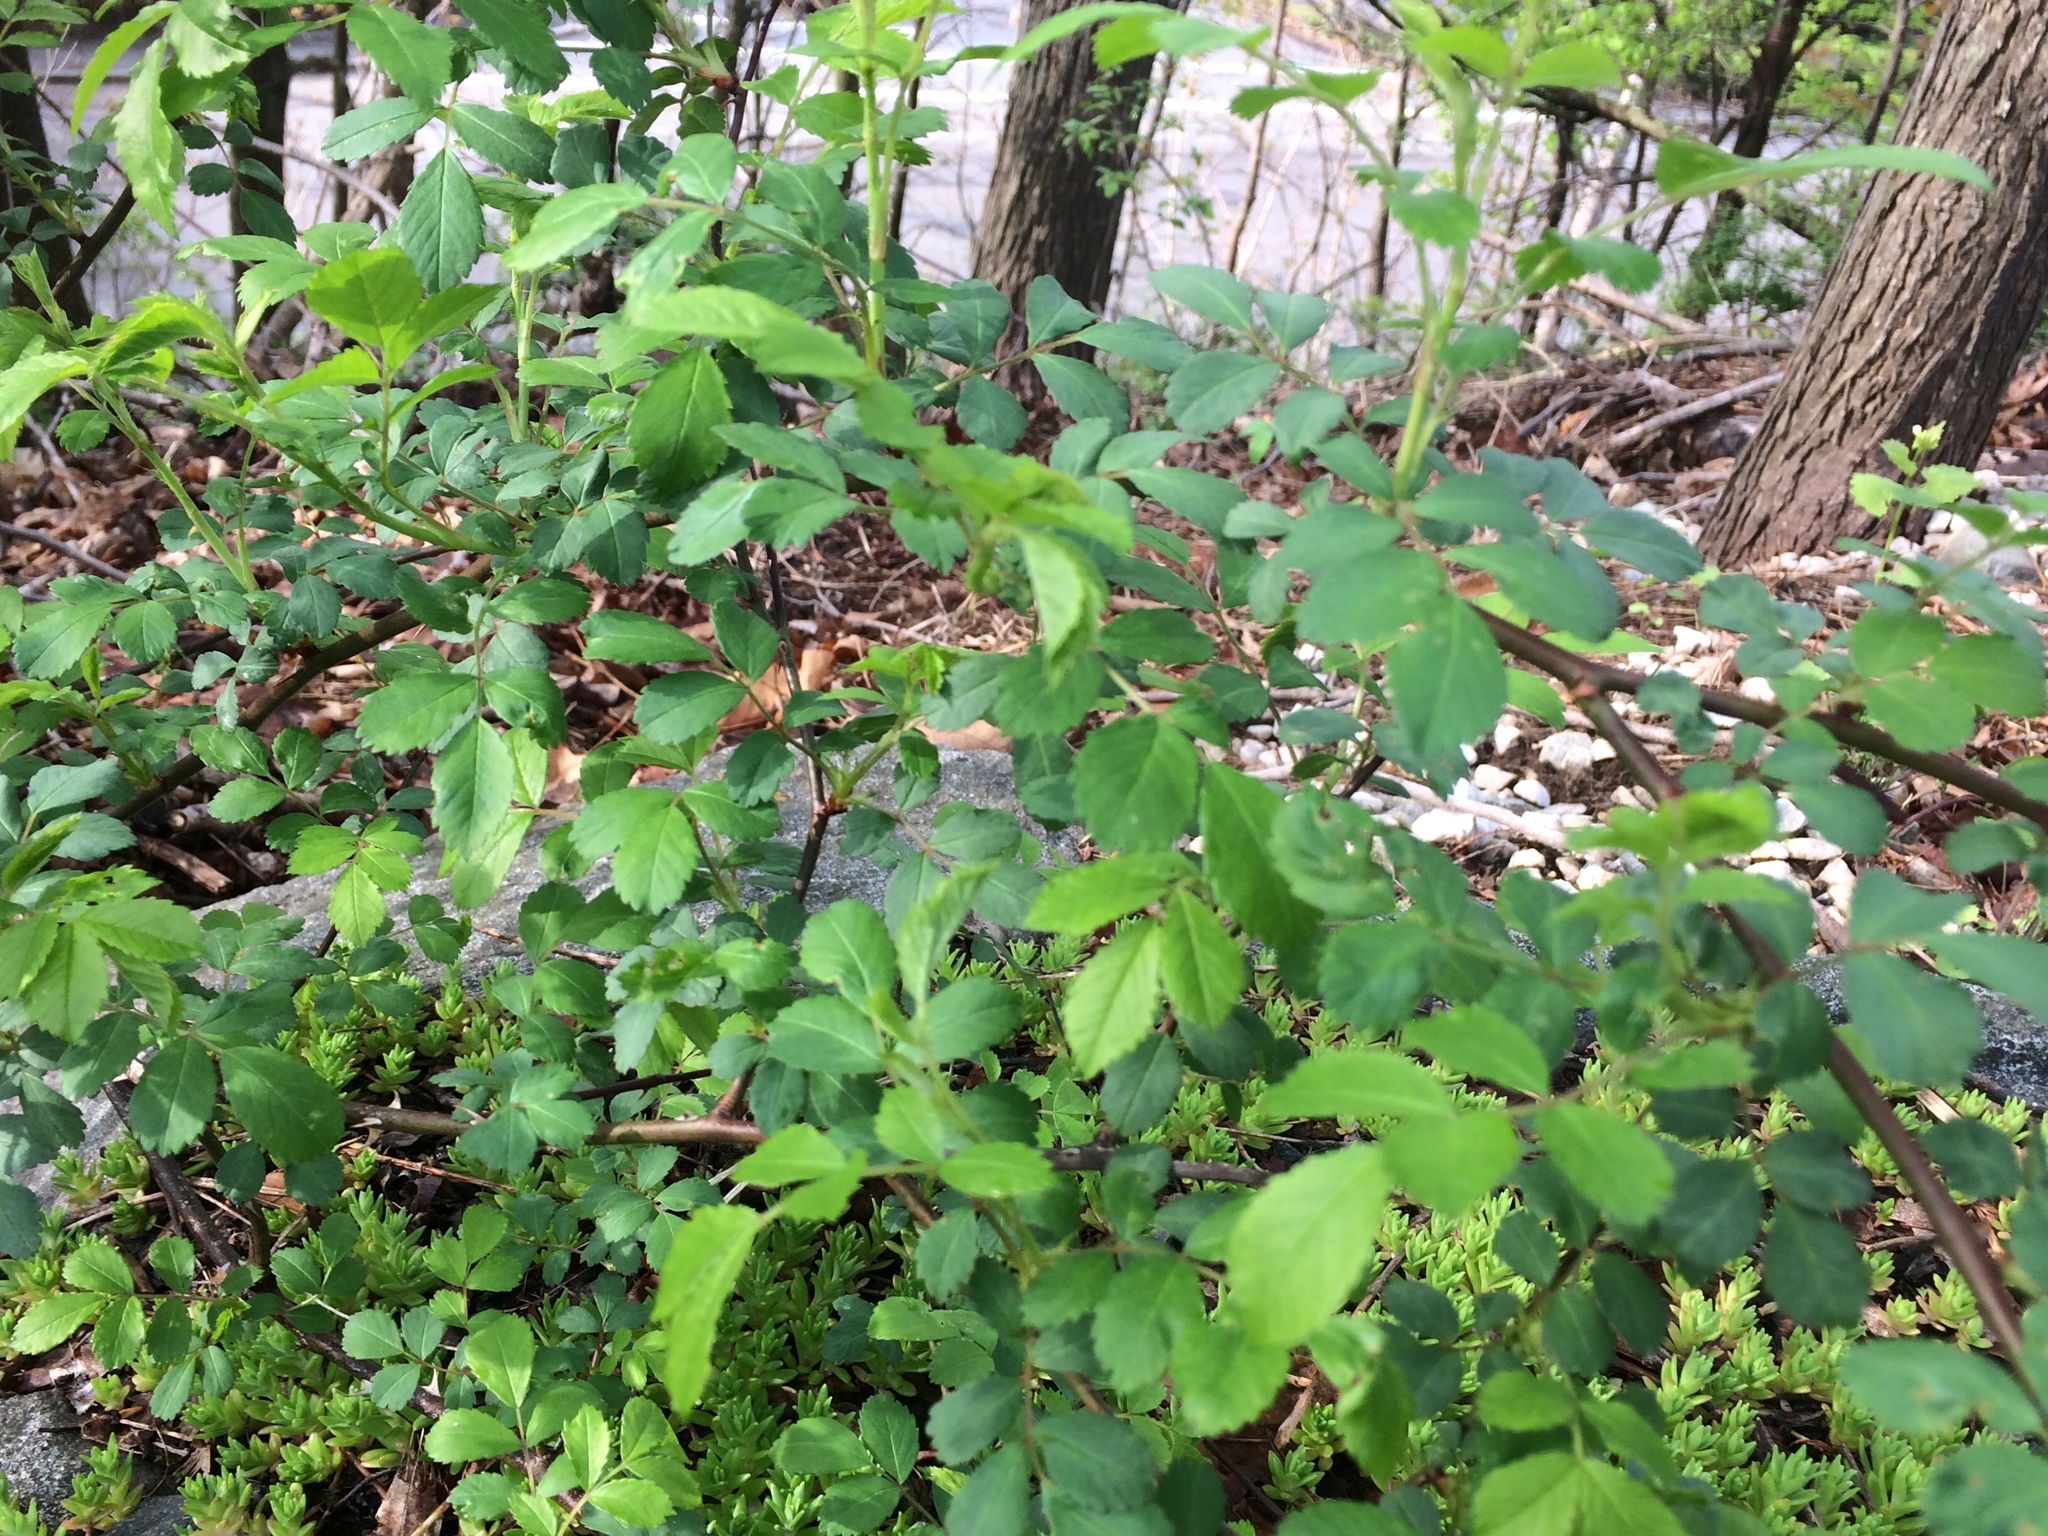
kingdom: Plantae
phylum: Tracheophyta
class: Magnoliopsida
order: Rosales
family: Rosaceae
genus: Rosa
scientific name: Rosa multiflora
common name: Multiflora rose
